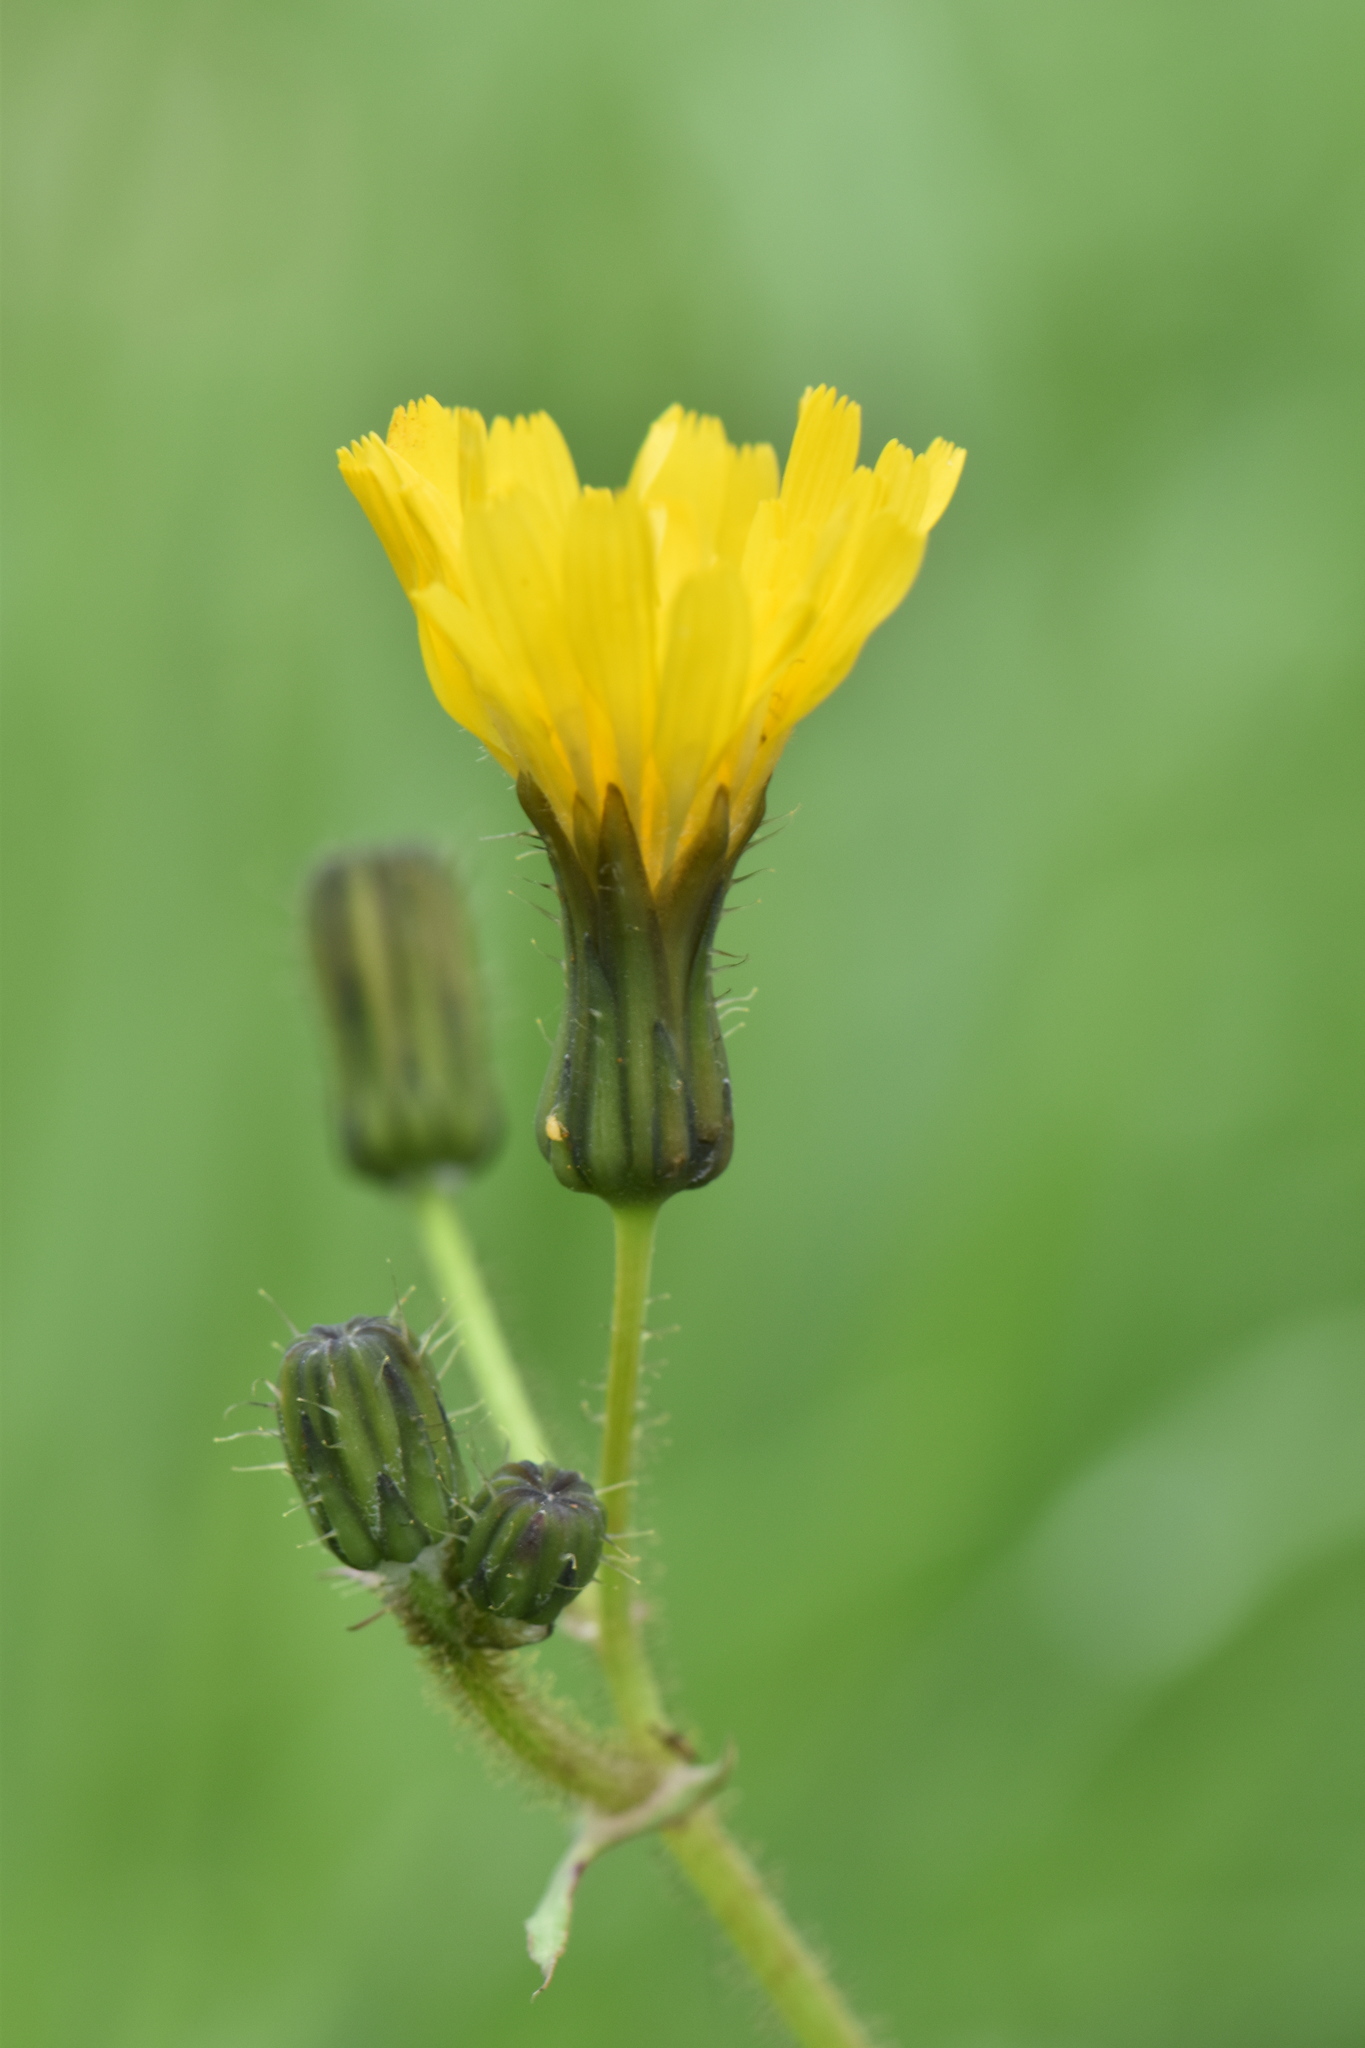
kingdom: Plantae
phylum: Tracheophyta
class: Magnoliopsida
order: Asterales
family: Asteraceae
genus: Sonchus
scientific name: Sonchus oleraceus
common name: Common sowthistle
